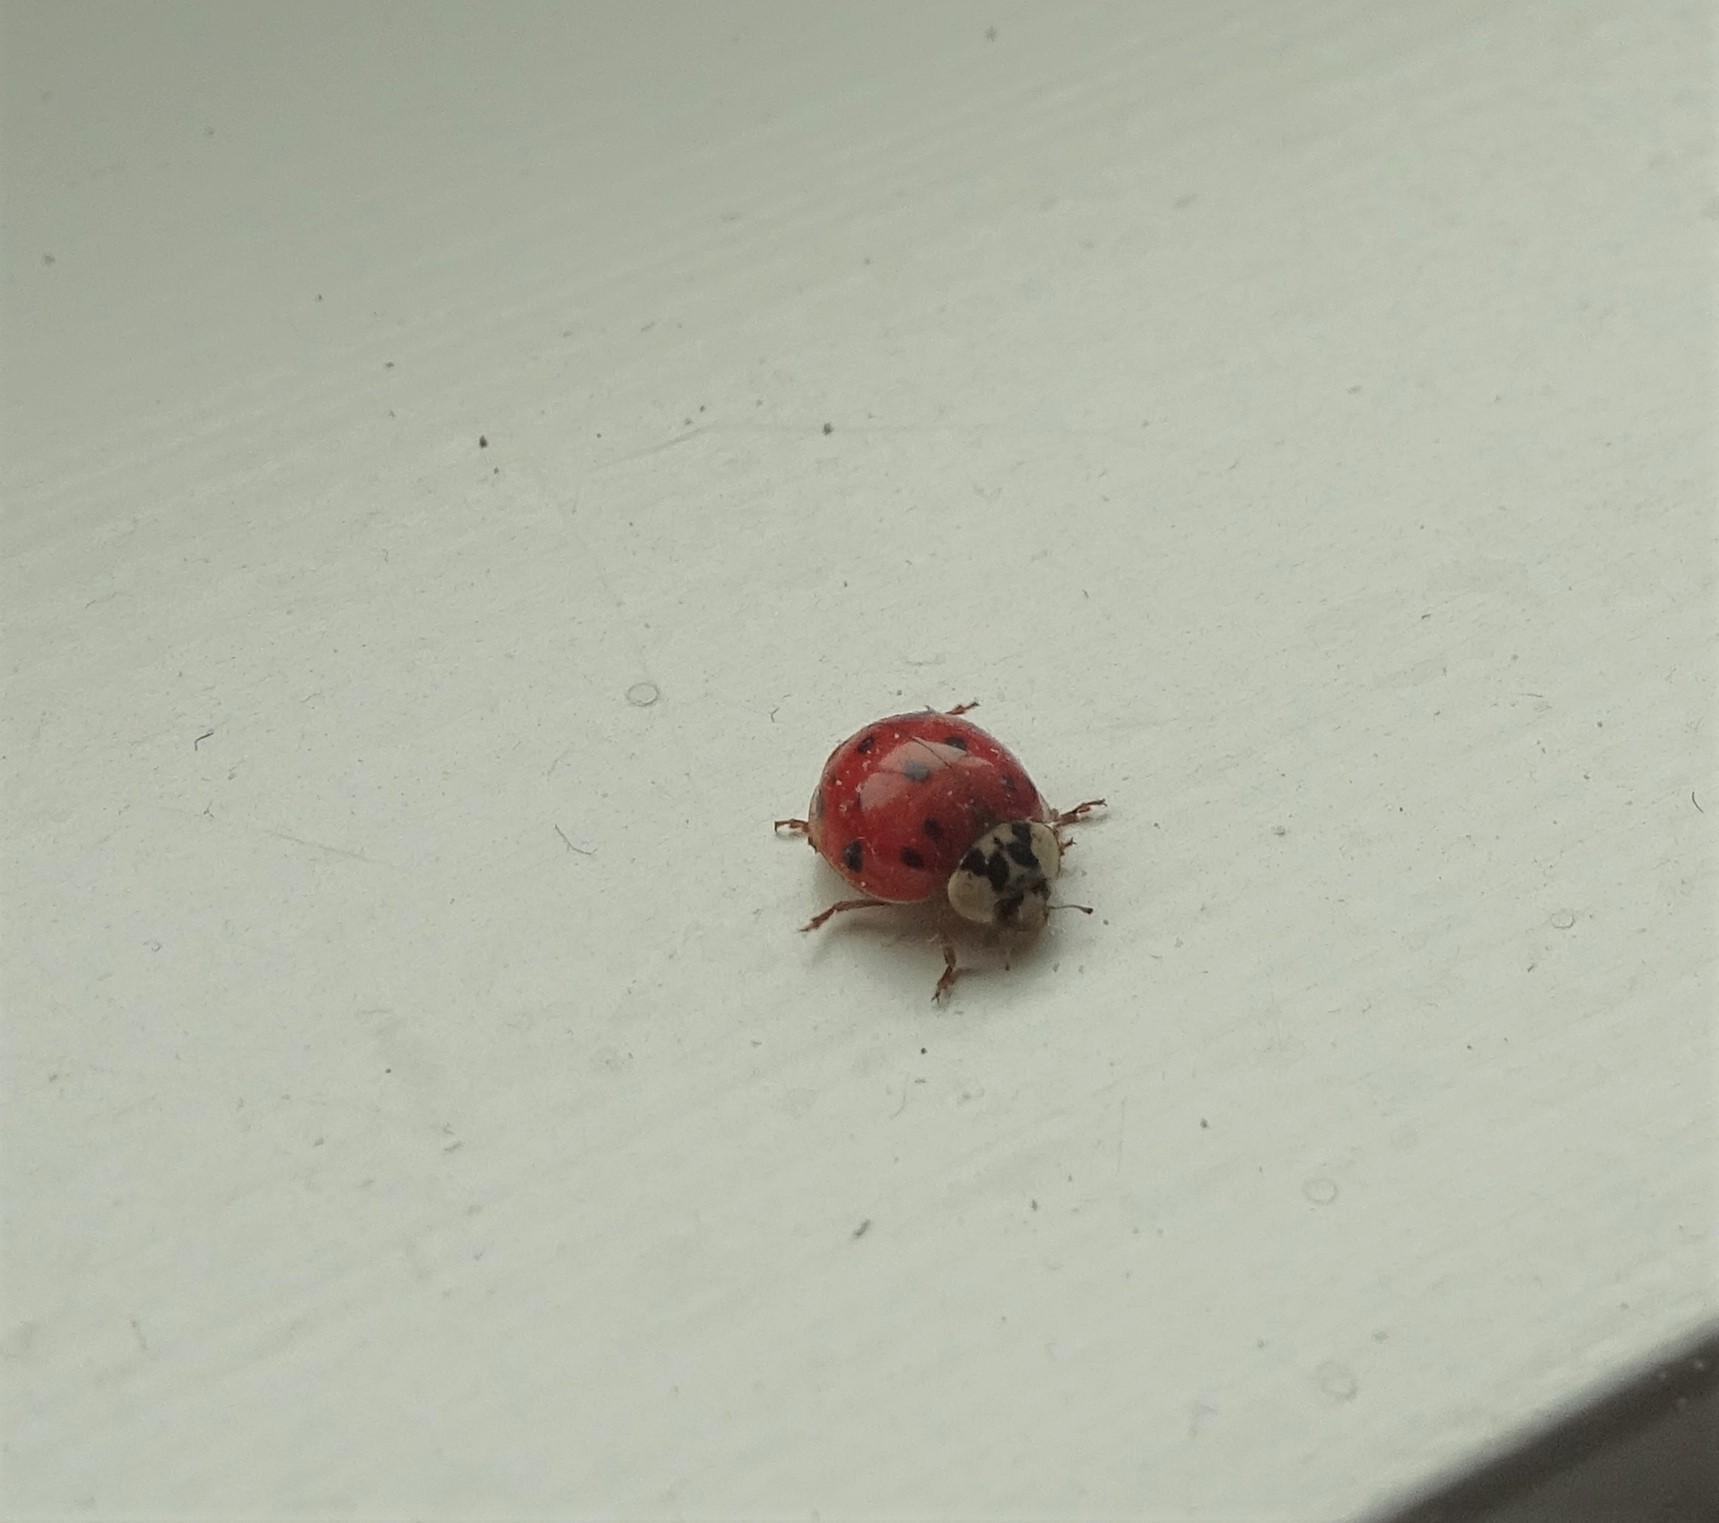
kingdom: Animalia
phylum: Arthropoda
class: Insecta
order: Coleoptera
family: Coccinellidae
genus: Harmonia
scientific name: Harmonia axyridis
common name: Harlequin ladybird
